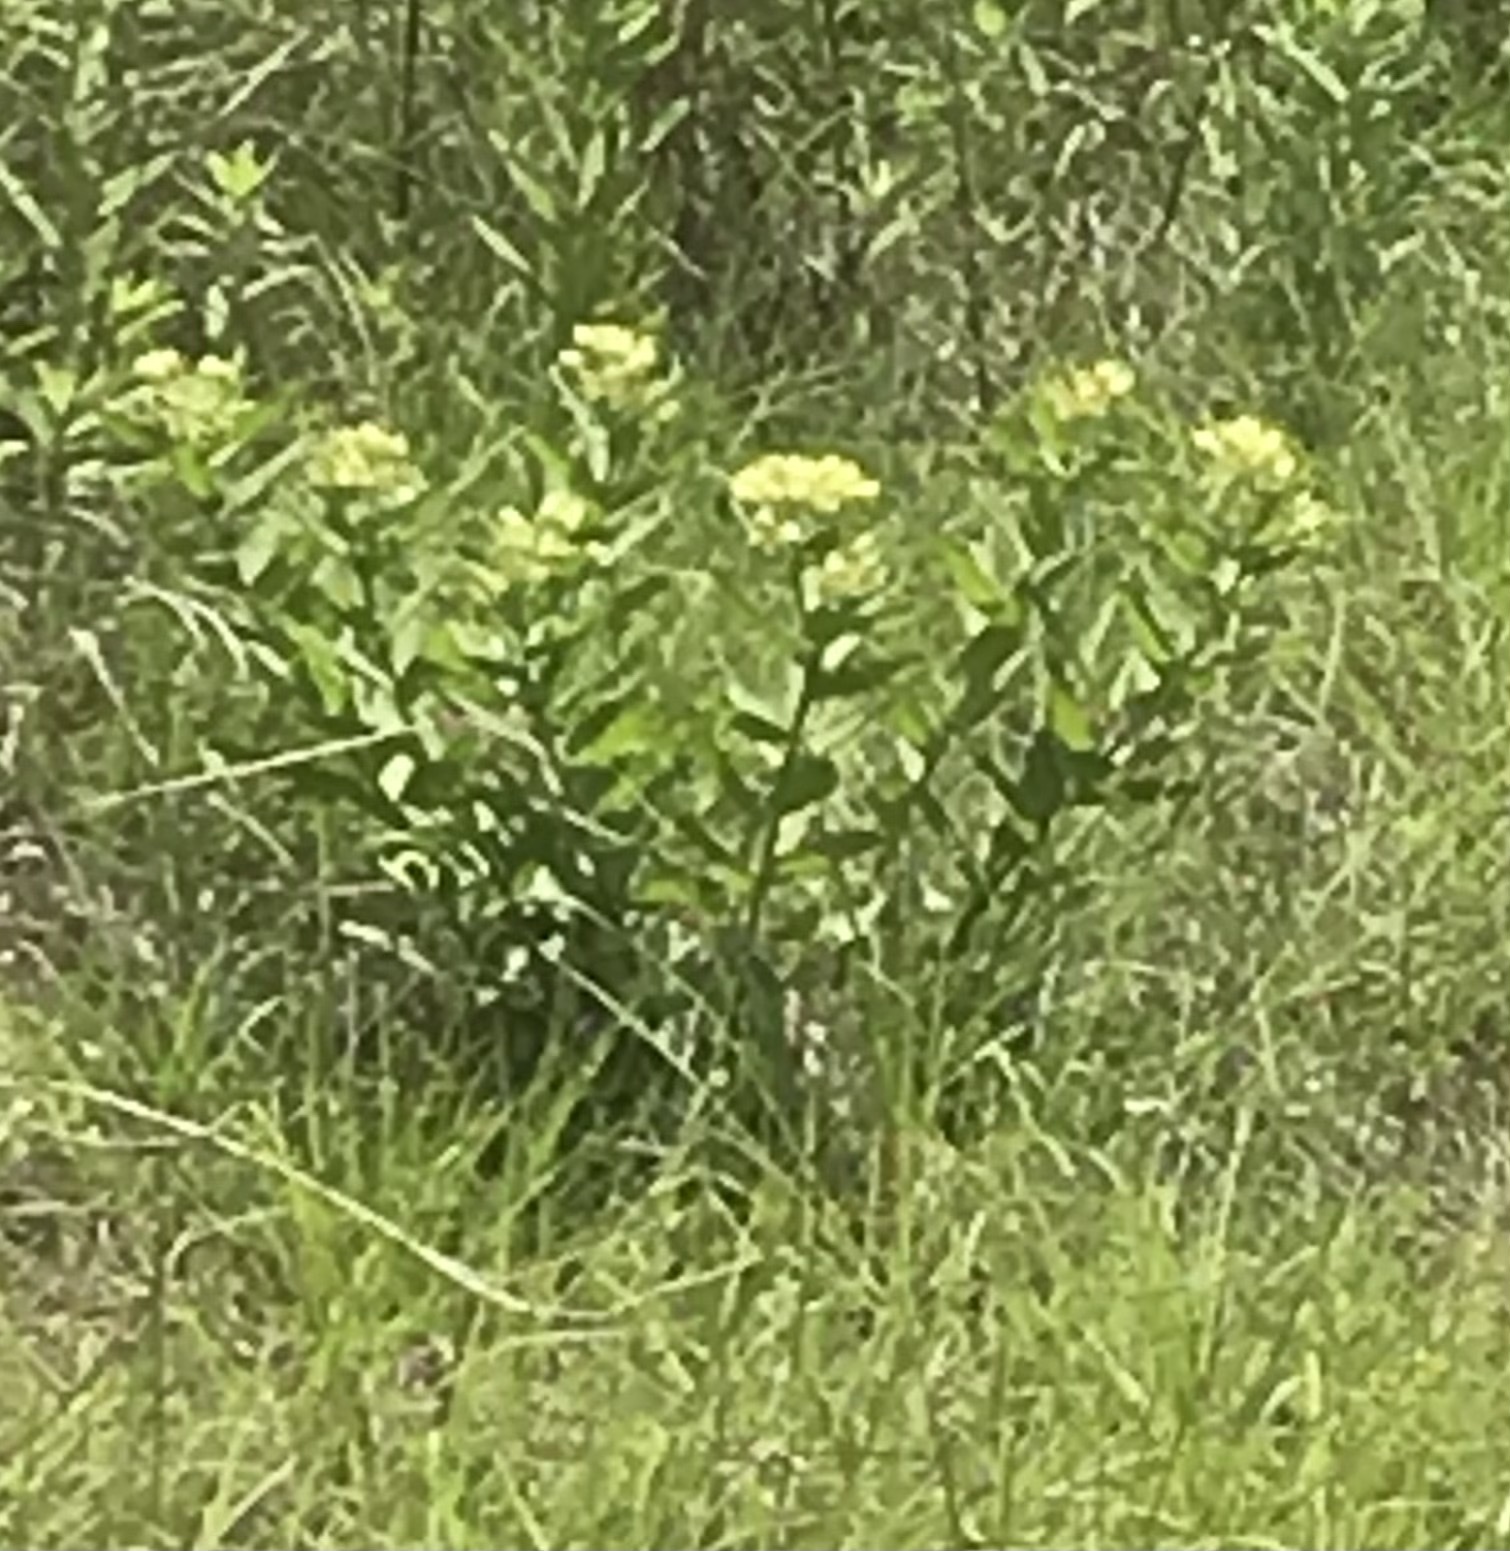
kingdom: Plantae
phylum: Tracheophyta
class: Magnoliopsida
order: Gentianales
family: Apocynaceae
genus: Asclepias
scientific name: Asclepias viridis
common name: Antelope-horns
